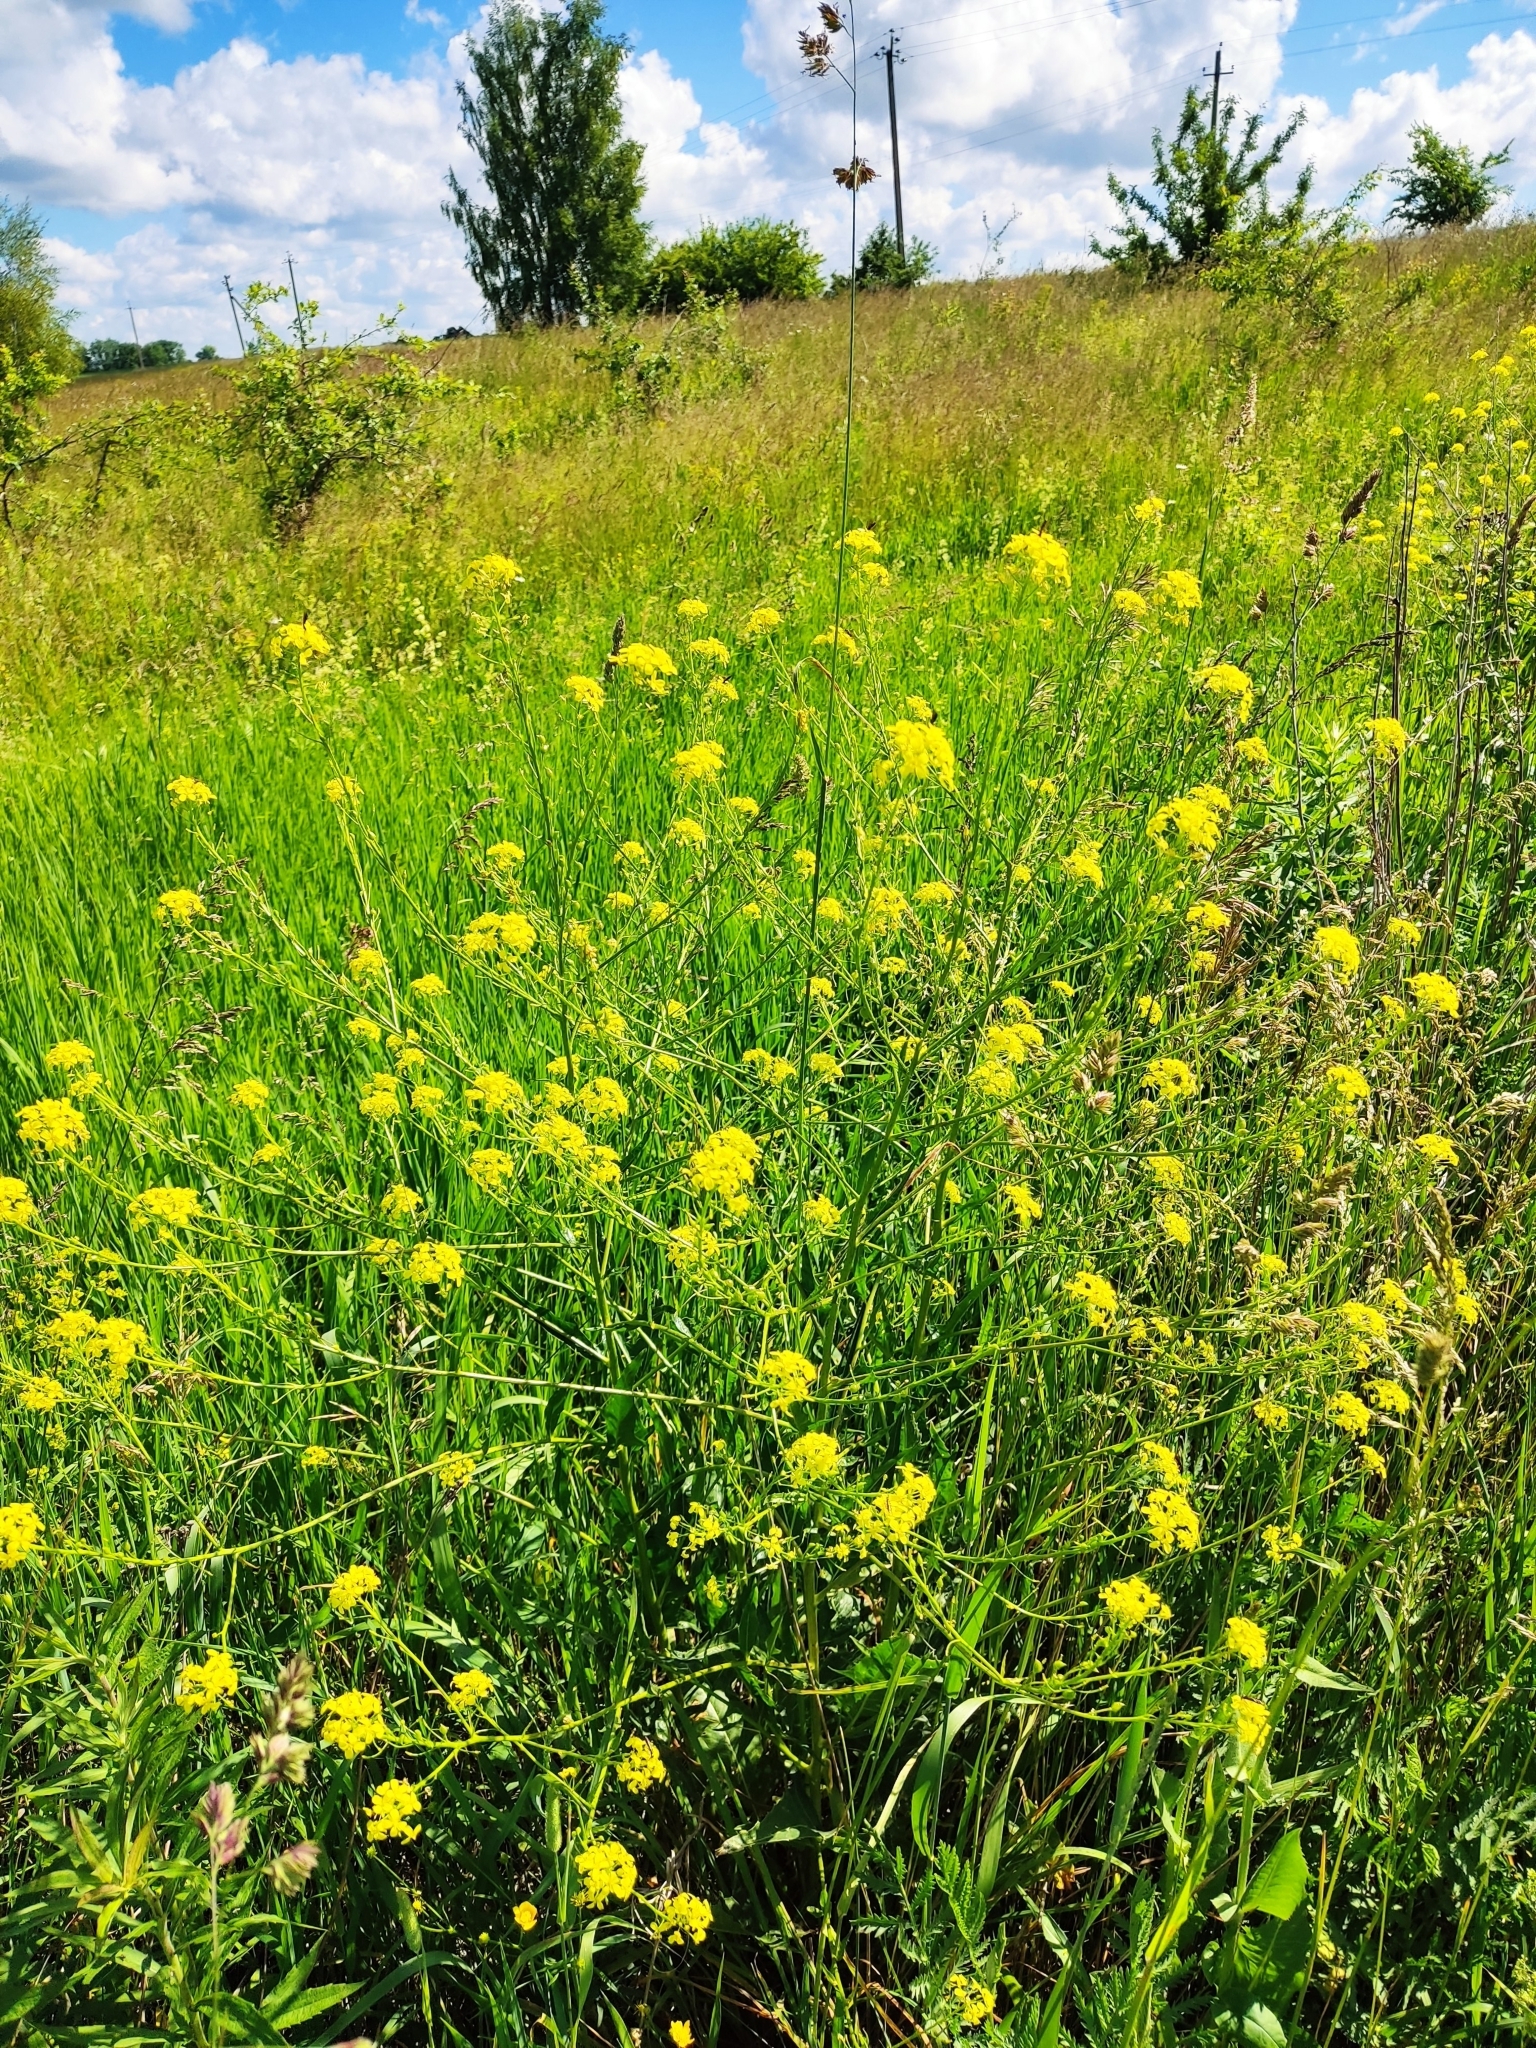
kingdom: Plantae
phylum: Tracheophyta
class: Magnoliopsida
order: Brassicales
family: Brassicaceae
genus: Bunias
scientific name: Bunias orientalis
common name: Warty-cabbage
